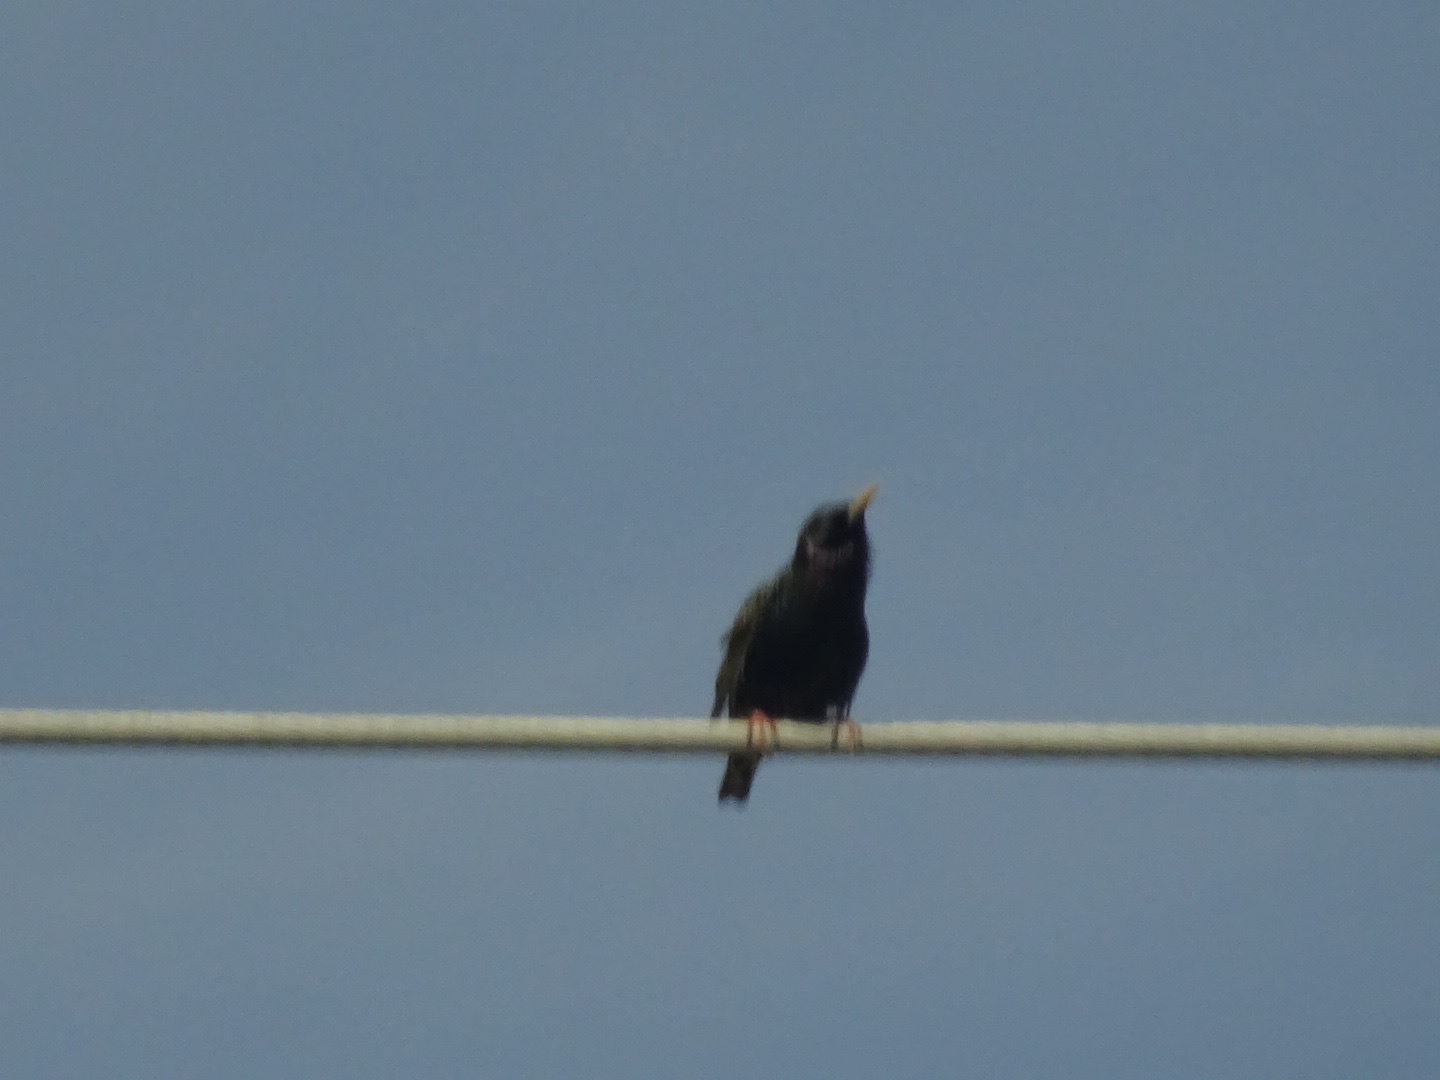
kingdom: Animalia
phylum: Chordata
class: Aves
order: Passeriformes
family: Sturnidae
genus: Sturnus
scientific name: Sturnus vulgaris
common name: Common starling
